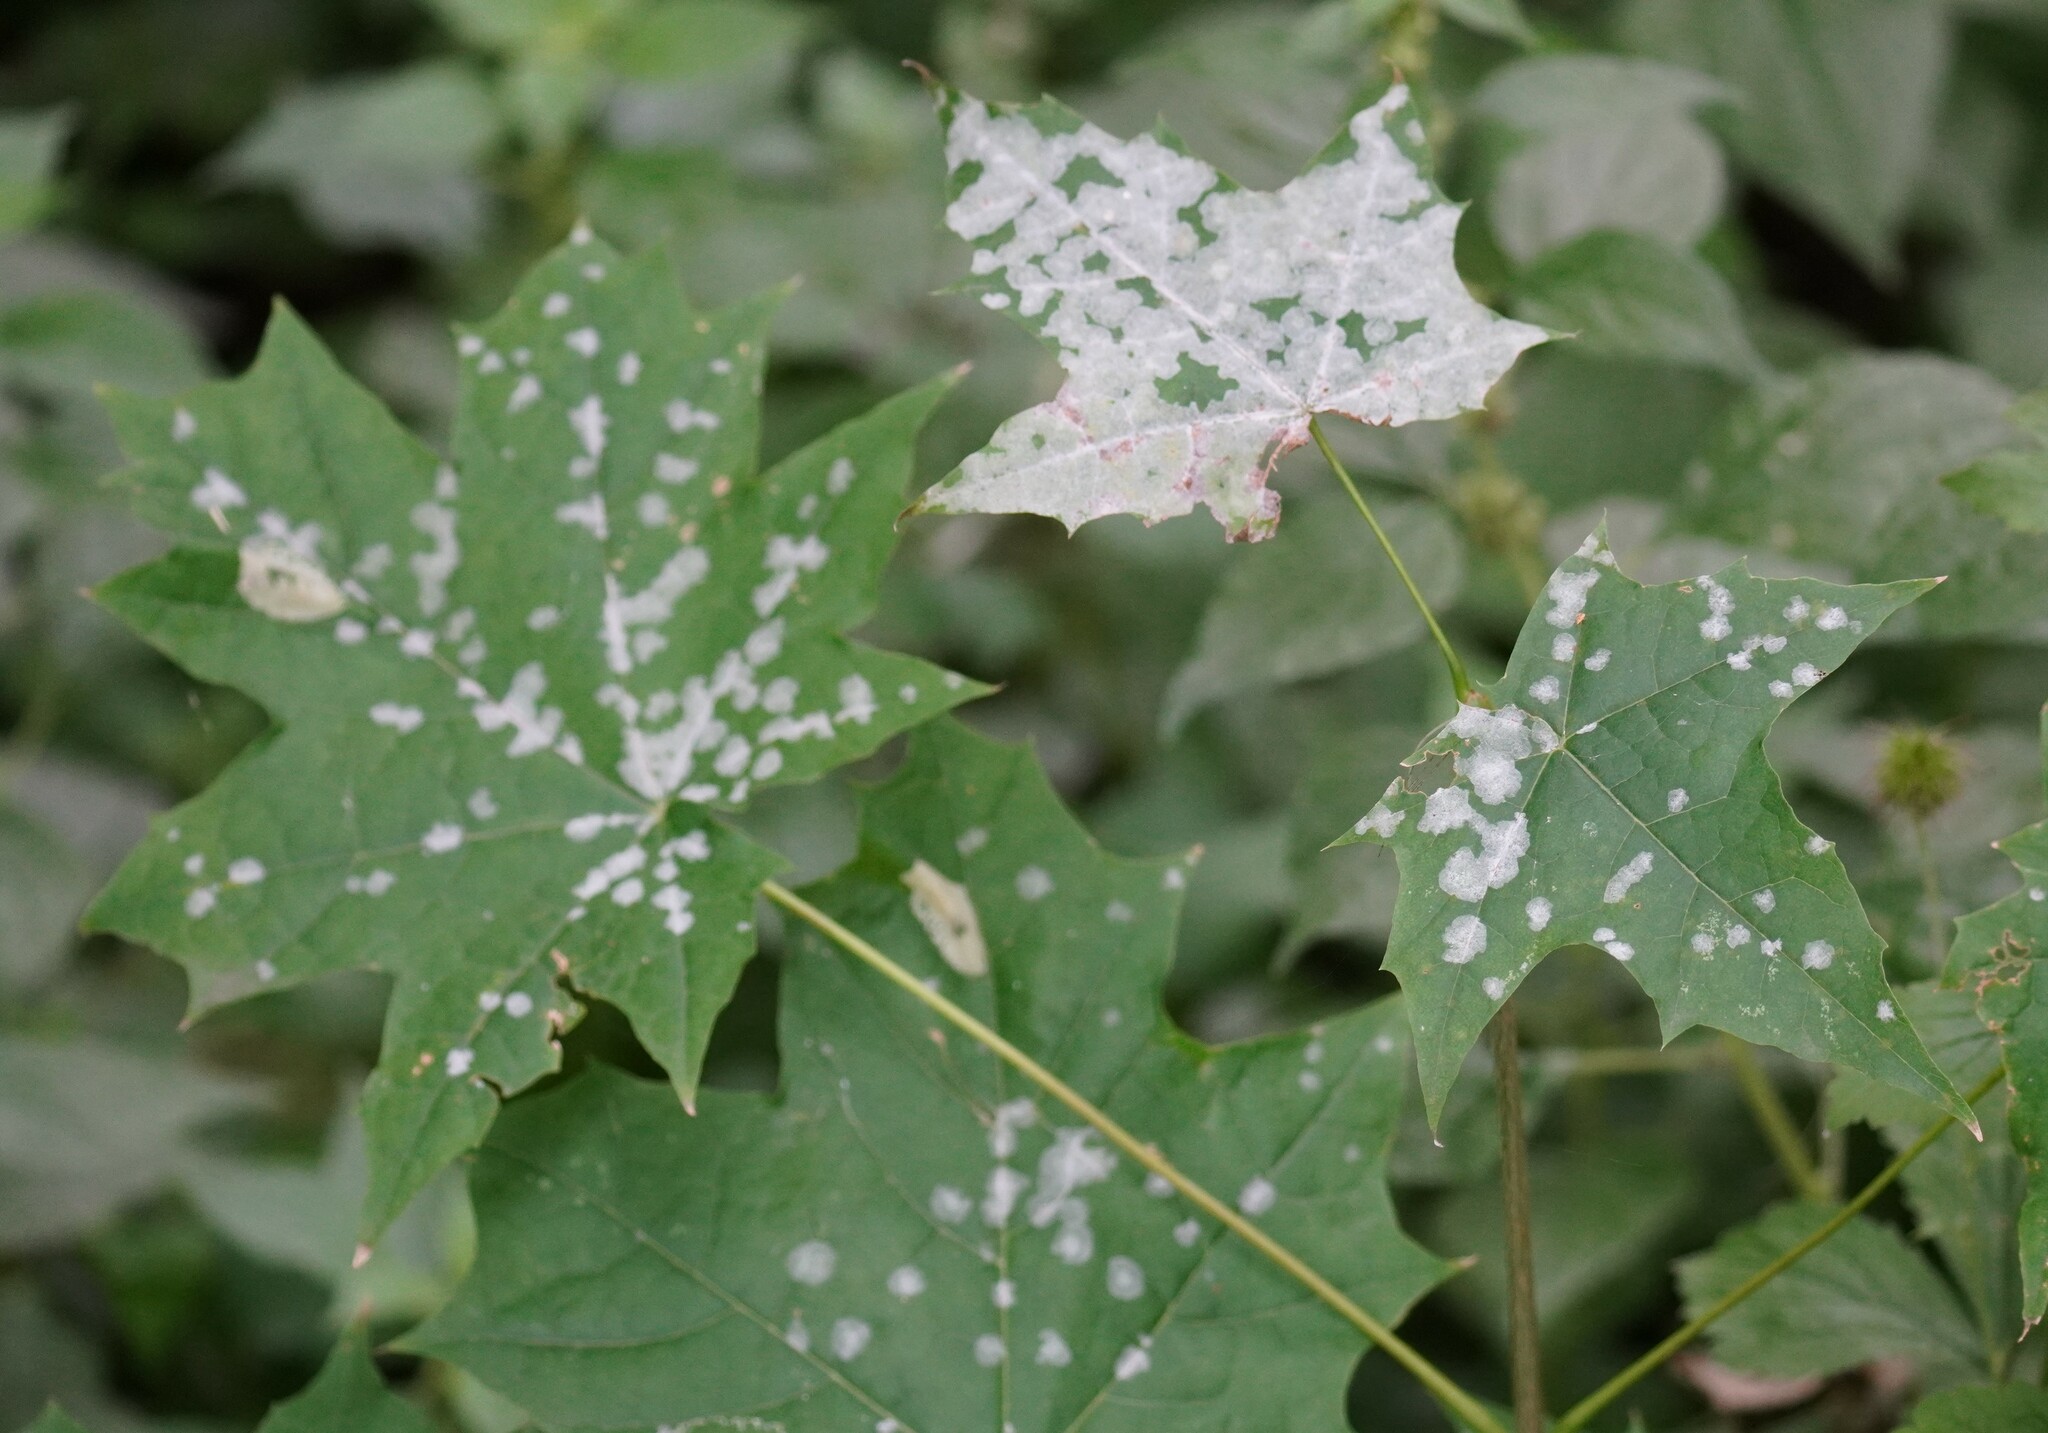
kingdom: Fungi
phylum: Ascomycota
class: Leotiomycetes
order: Helotiales
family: Erysiphaceae
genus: Sawadaea
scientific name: Sawadaea tulasnei
